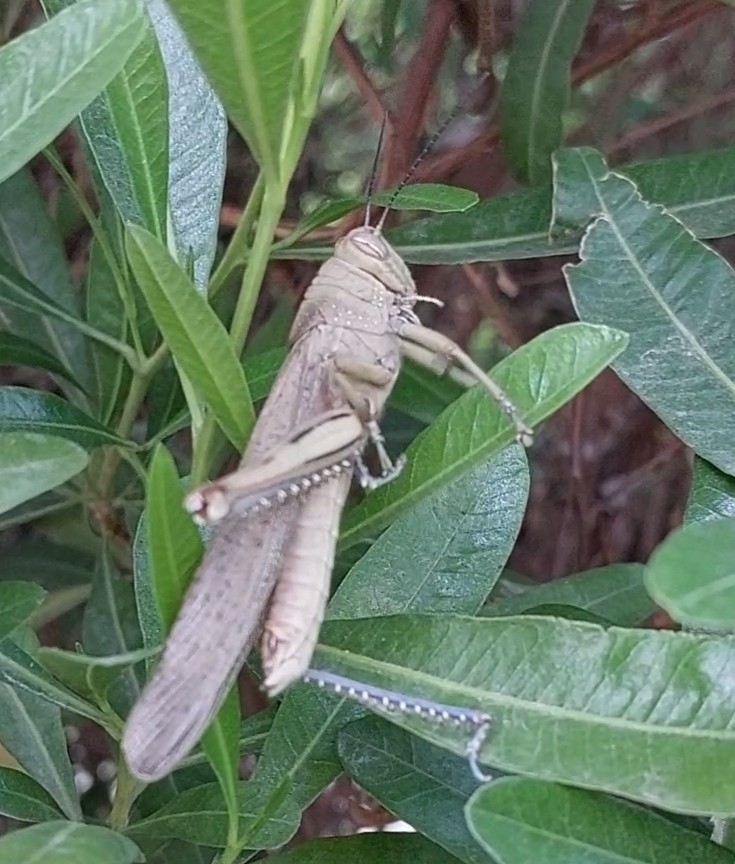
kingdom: Animalia
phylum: Arthropoda
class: Insecta
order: Orthoptera
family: Acrididae
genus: Anacridium
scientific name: Anacridium aegyptium
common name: Egyptian grasshopper
